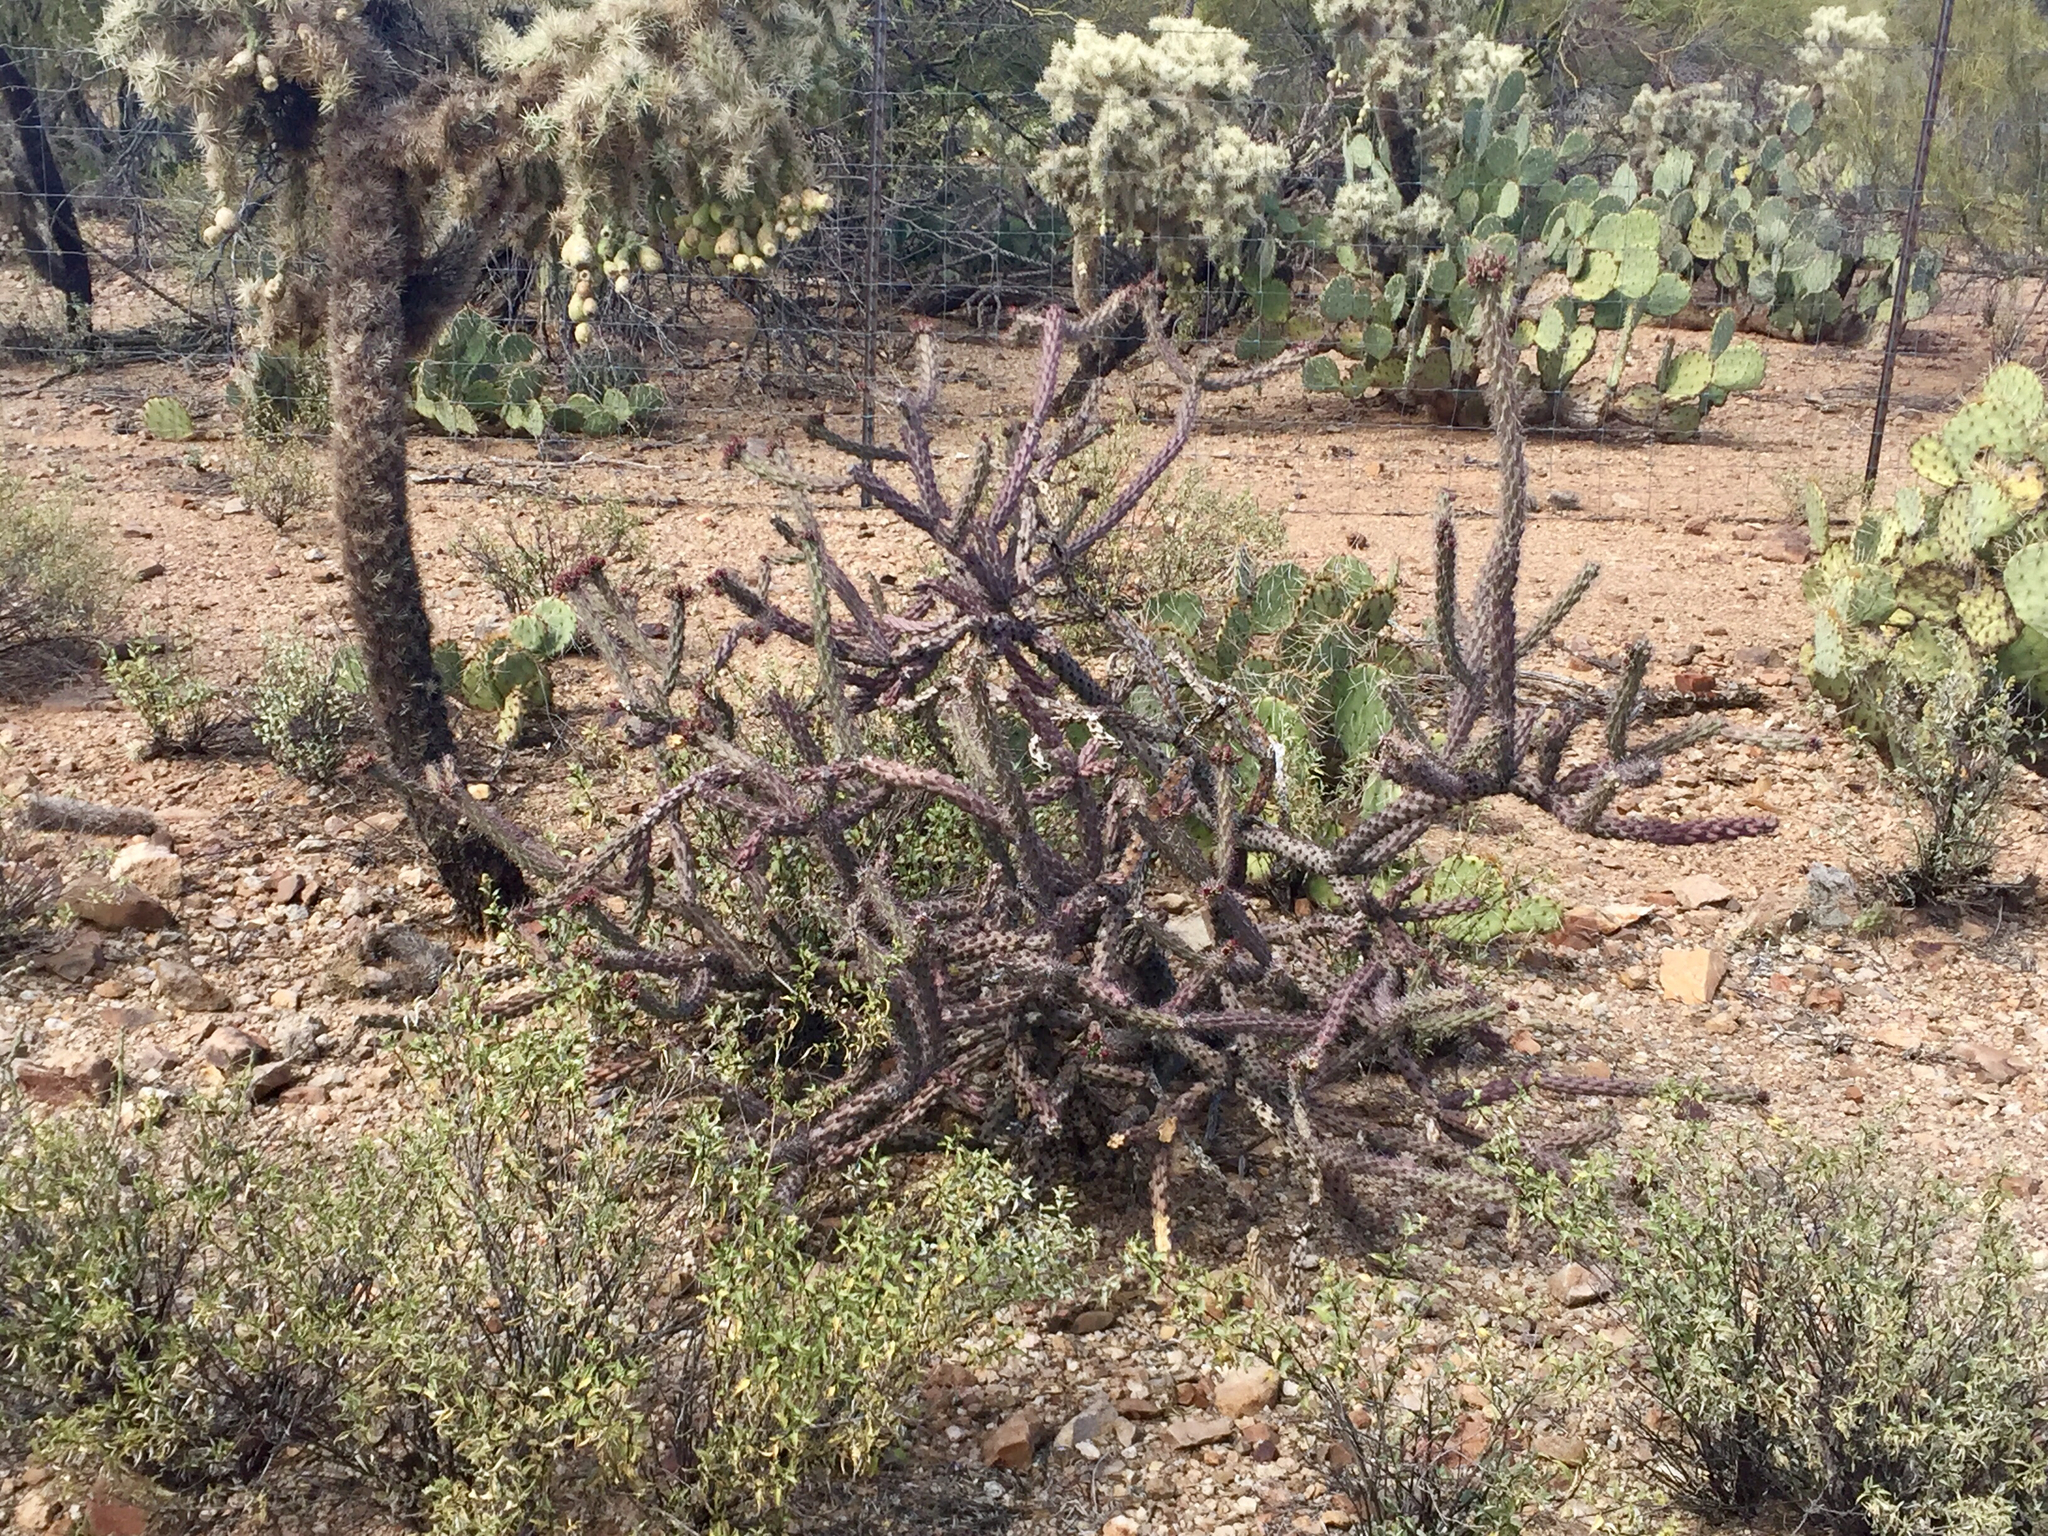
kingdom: Plantae
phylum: Tracheophyta
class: Magnoliopsida
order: Caryophyllales
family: Cactaceae
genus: Cylindropuntia
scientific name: Cylindropuntia thurberi
